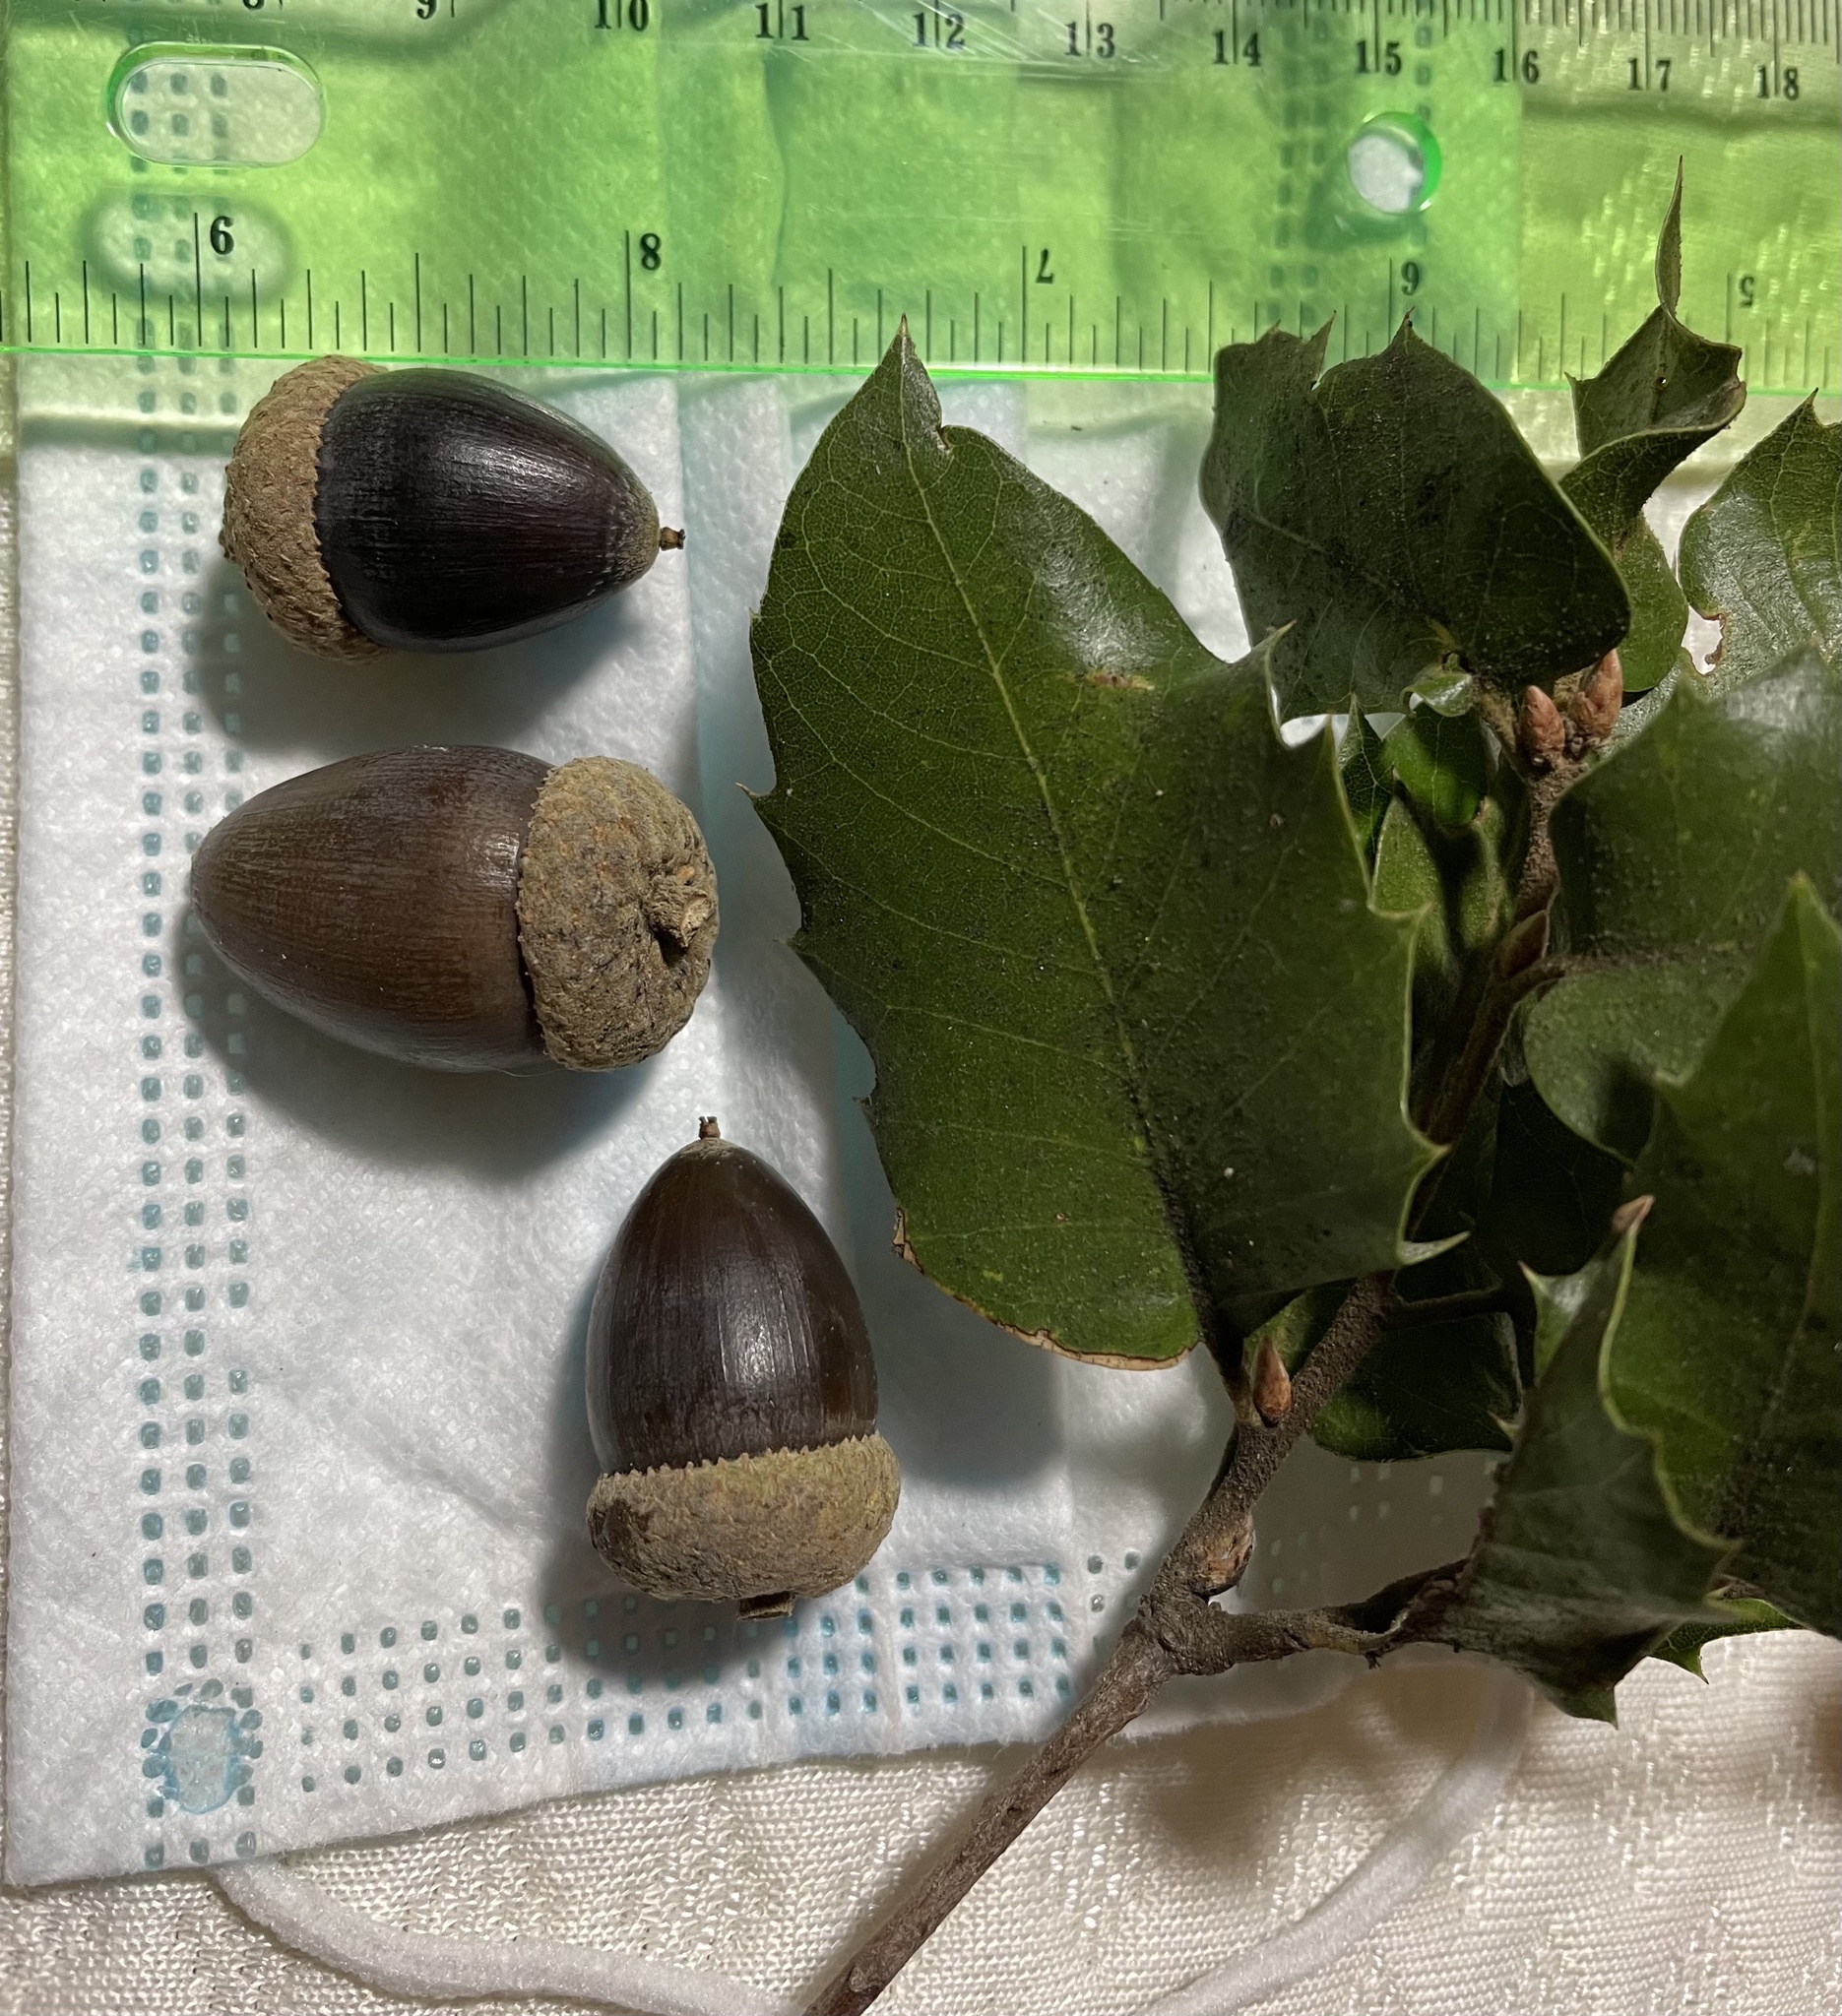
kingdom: Plantae
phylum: Tracheophyta
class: Magnoliopsida
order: Fagales
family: Fagaceae
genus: Quercus
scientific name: Quercus chrysolepis
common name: Canyon live oak
